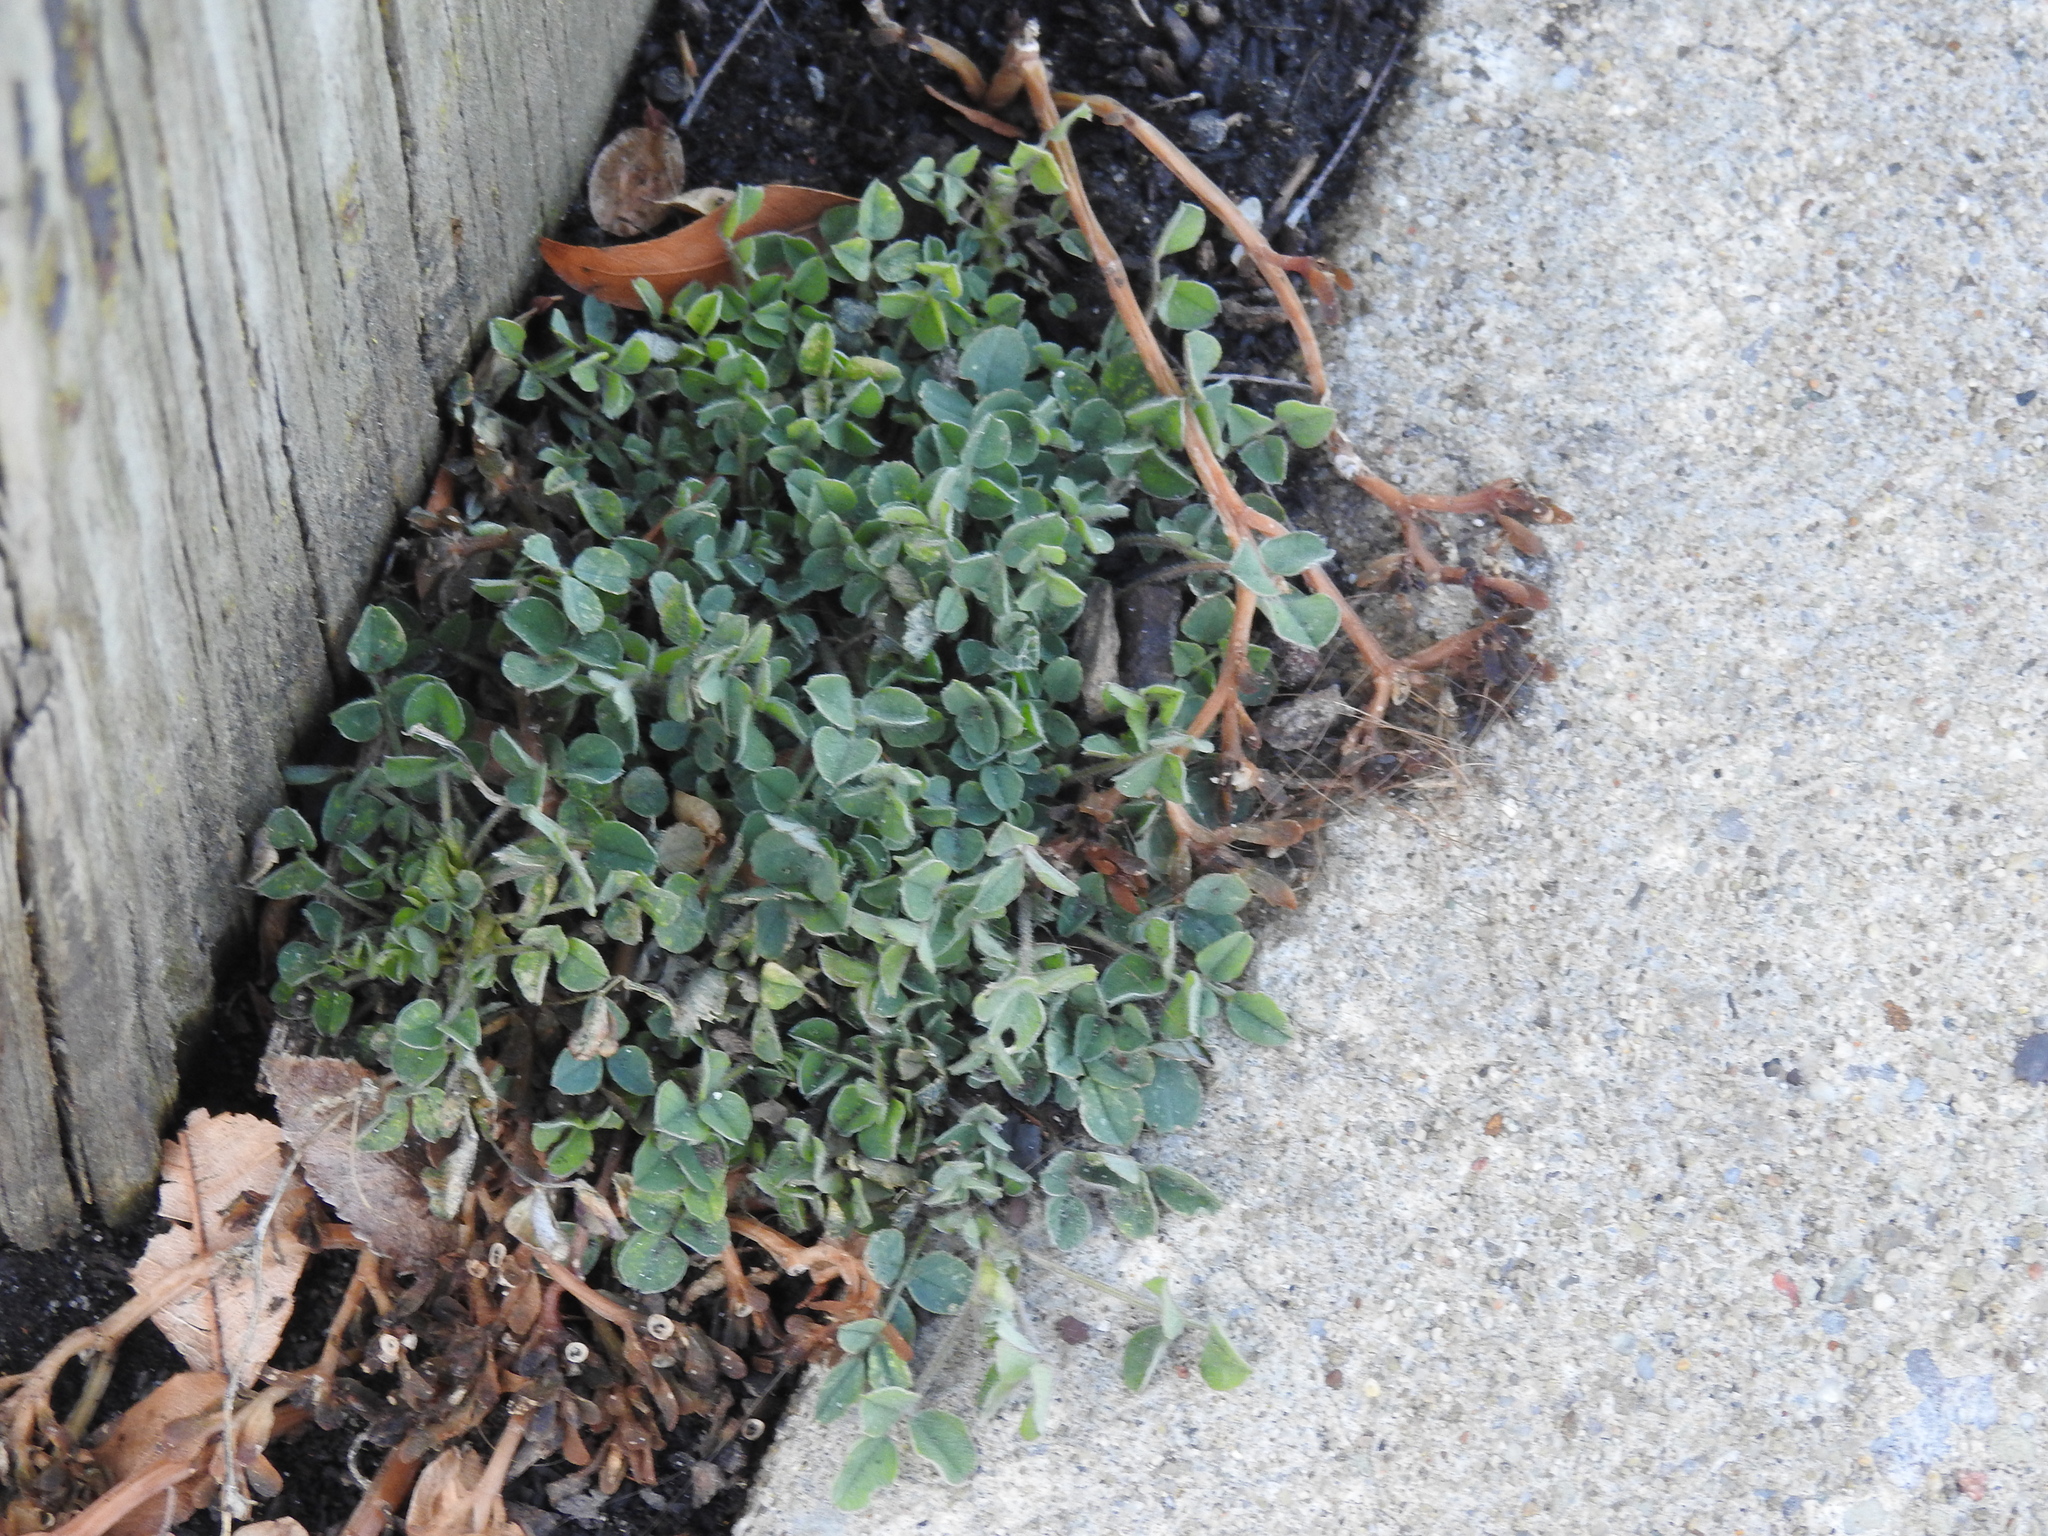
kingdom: Plantae
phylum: Tracheophyta
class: Magnoliopsida
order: Fabales
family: Fabaceae
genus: Medicago
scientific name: Medicago lupulina
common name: Black medick
